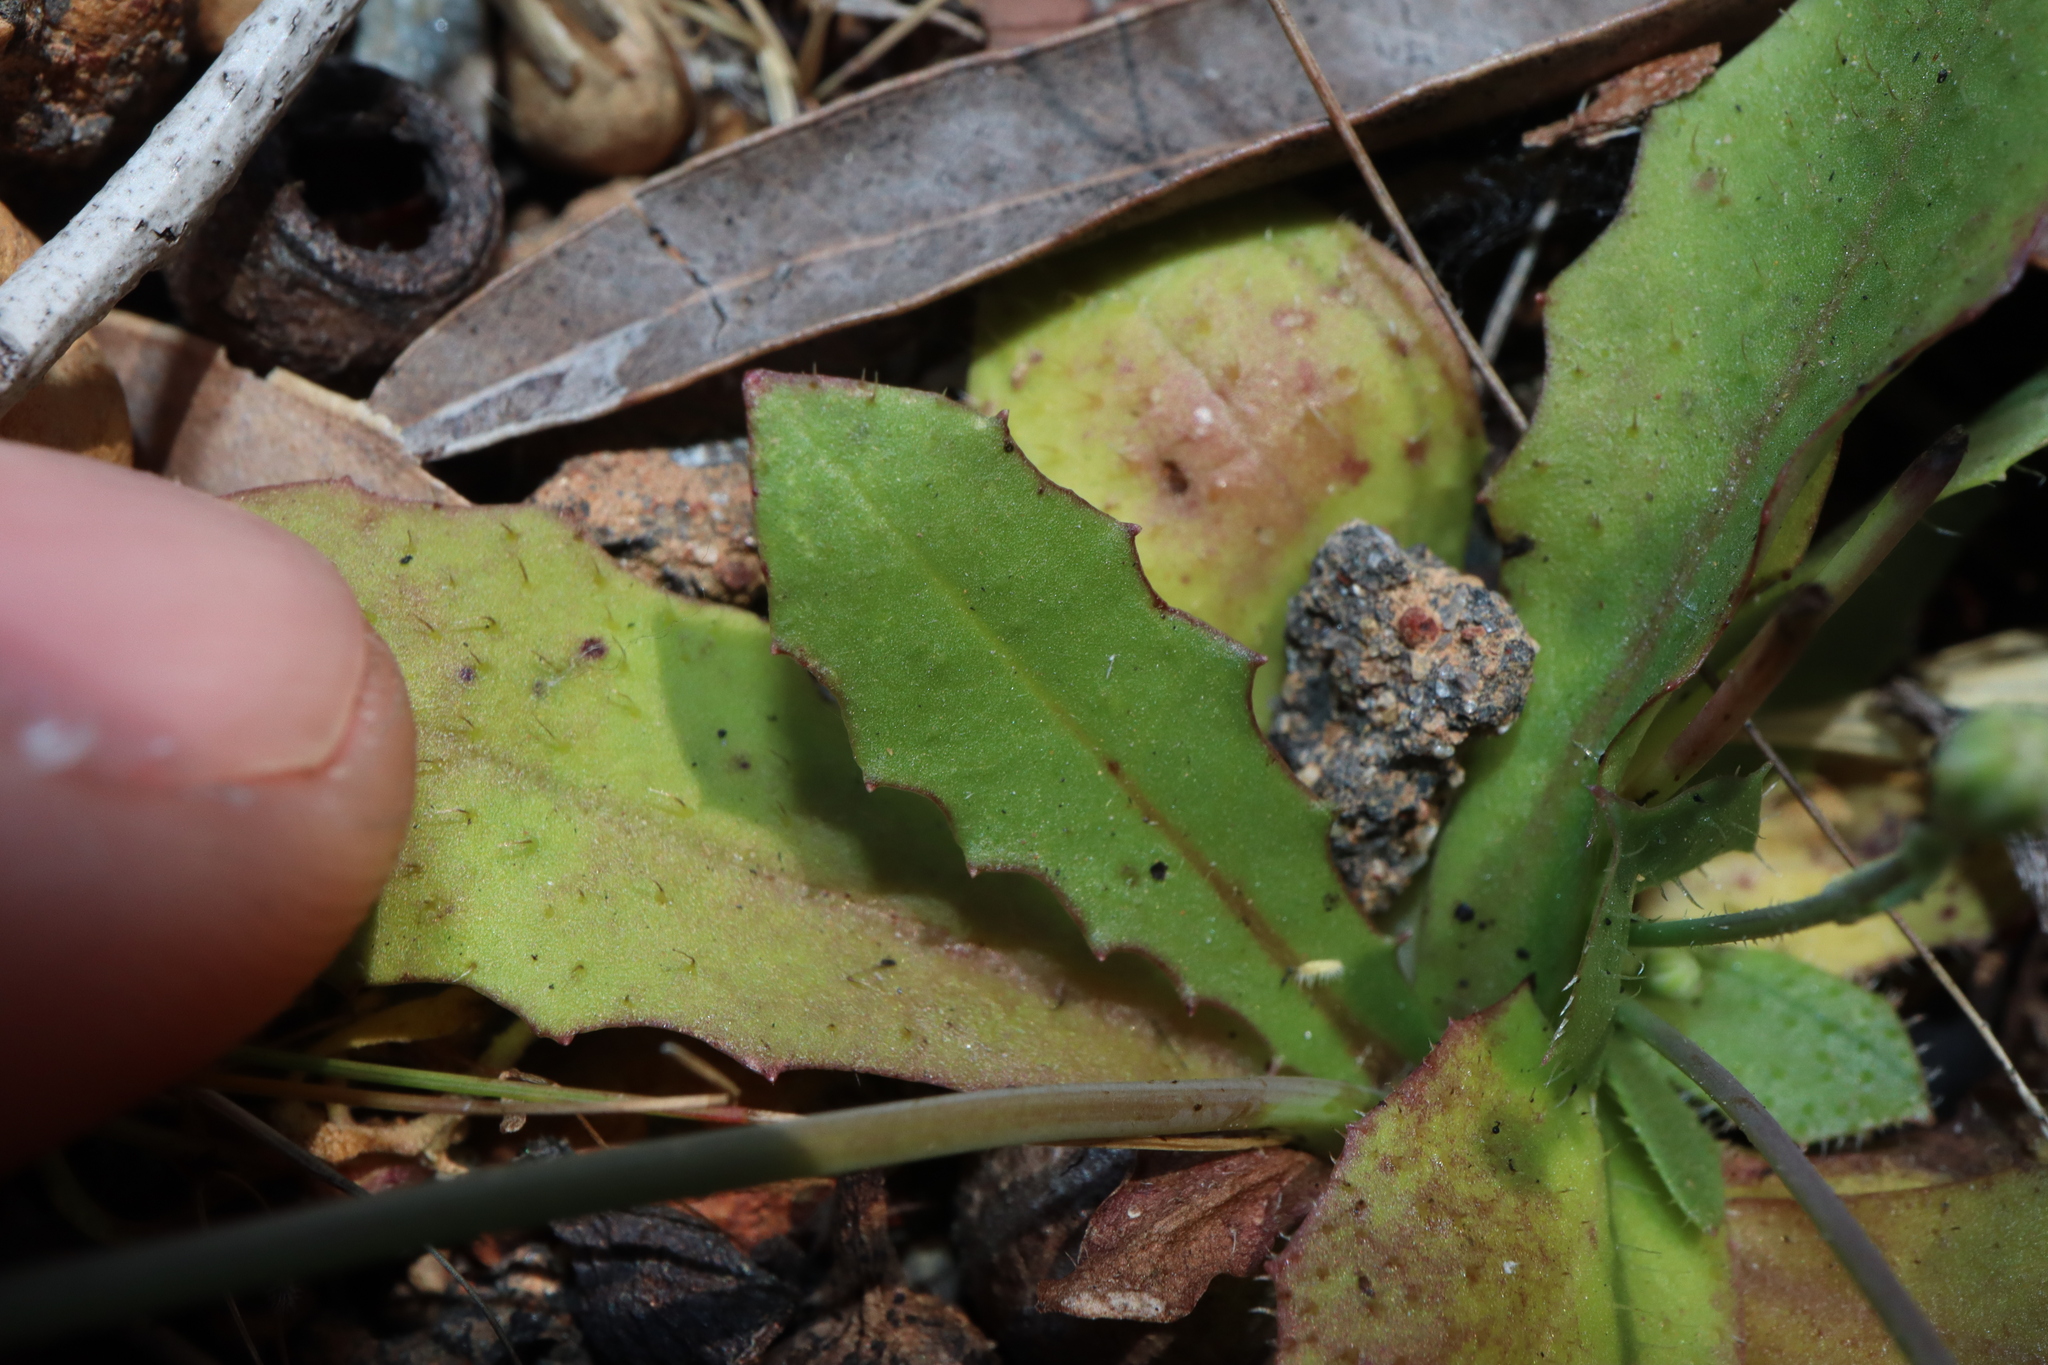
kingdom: Plantae
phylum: Tracheophyta
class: Magnoliopsida
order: Asterales
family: Asteraceae
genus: Hypochaeris
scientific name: Hypochaeris glabra
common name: Smooth catsear
